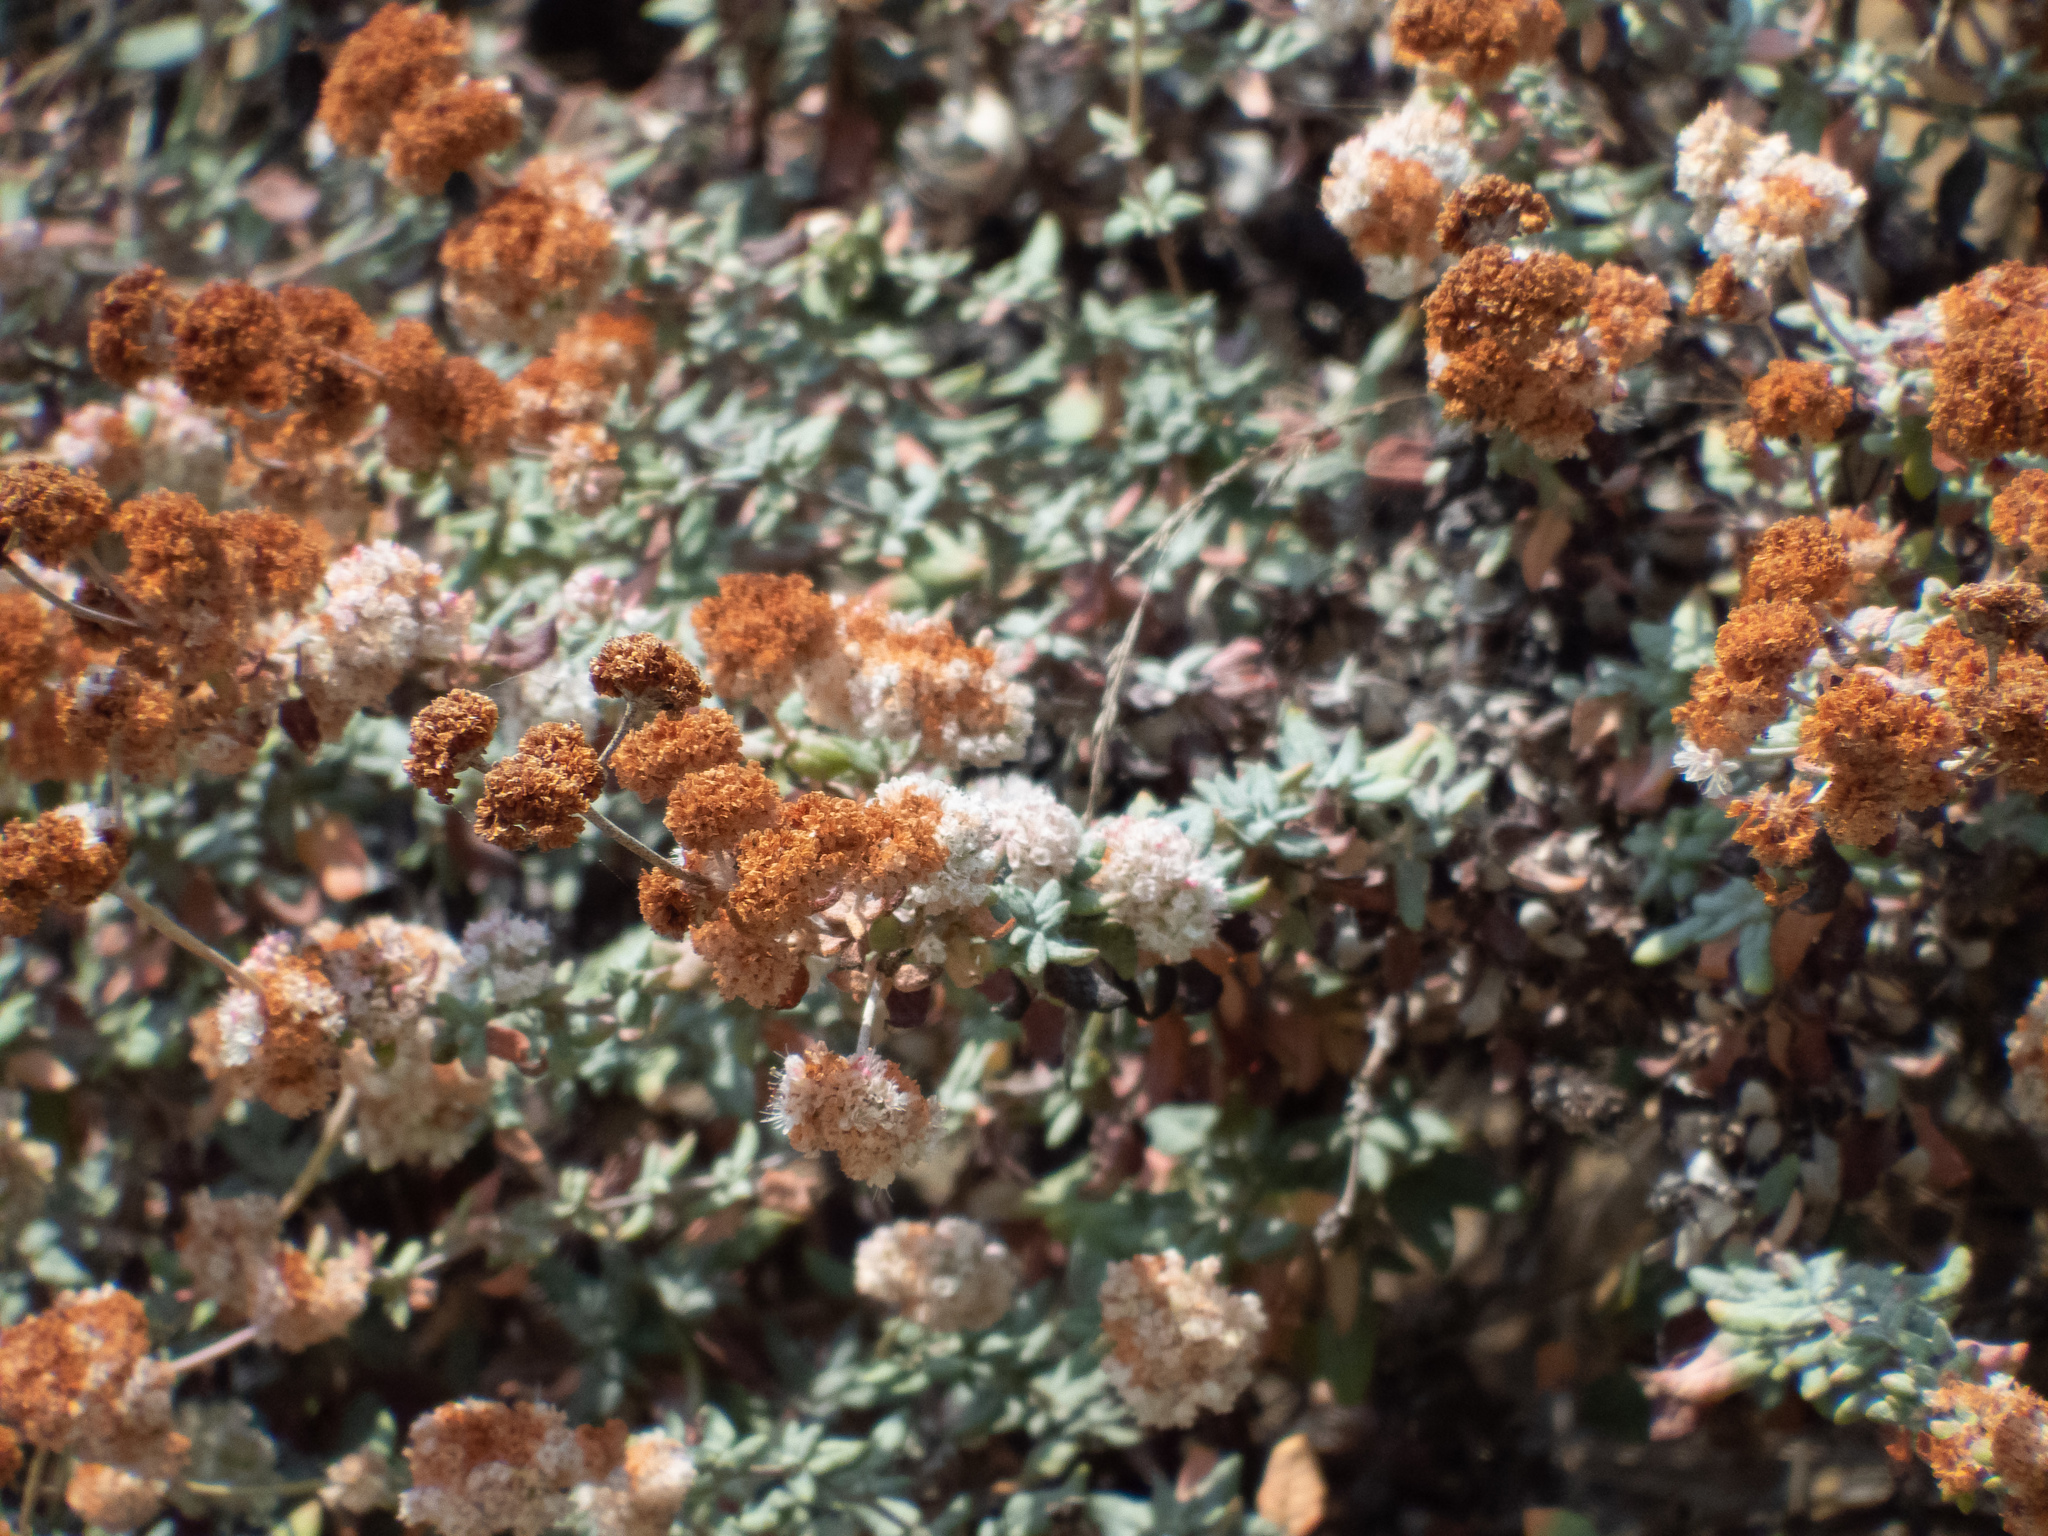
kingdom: Plantae
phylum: Tracheophyta
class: Magnoliopsida
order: Caryophyllales
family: Polygonaceae
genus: Eriogonum
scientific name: Eriogonum parvifolium
